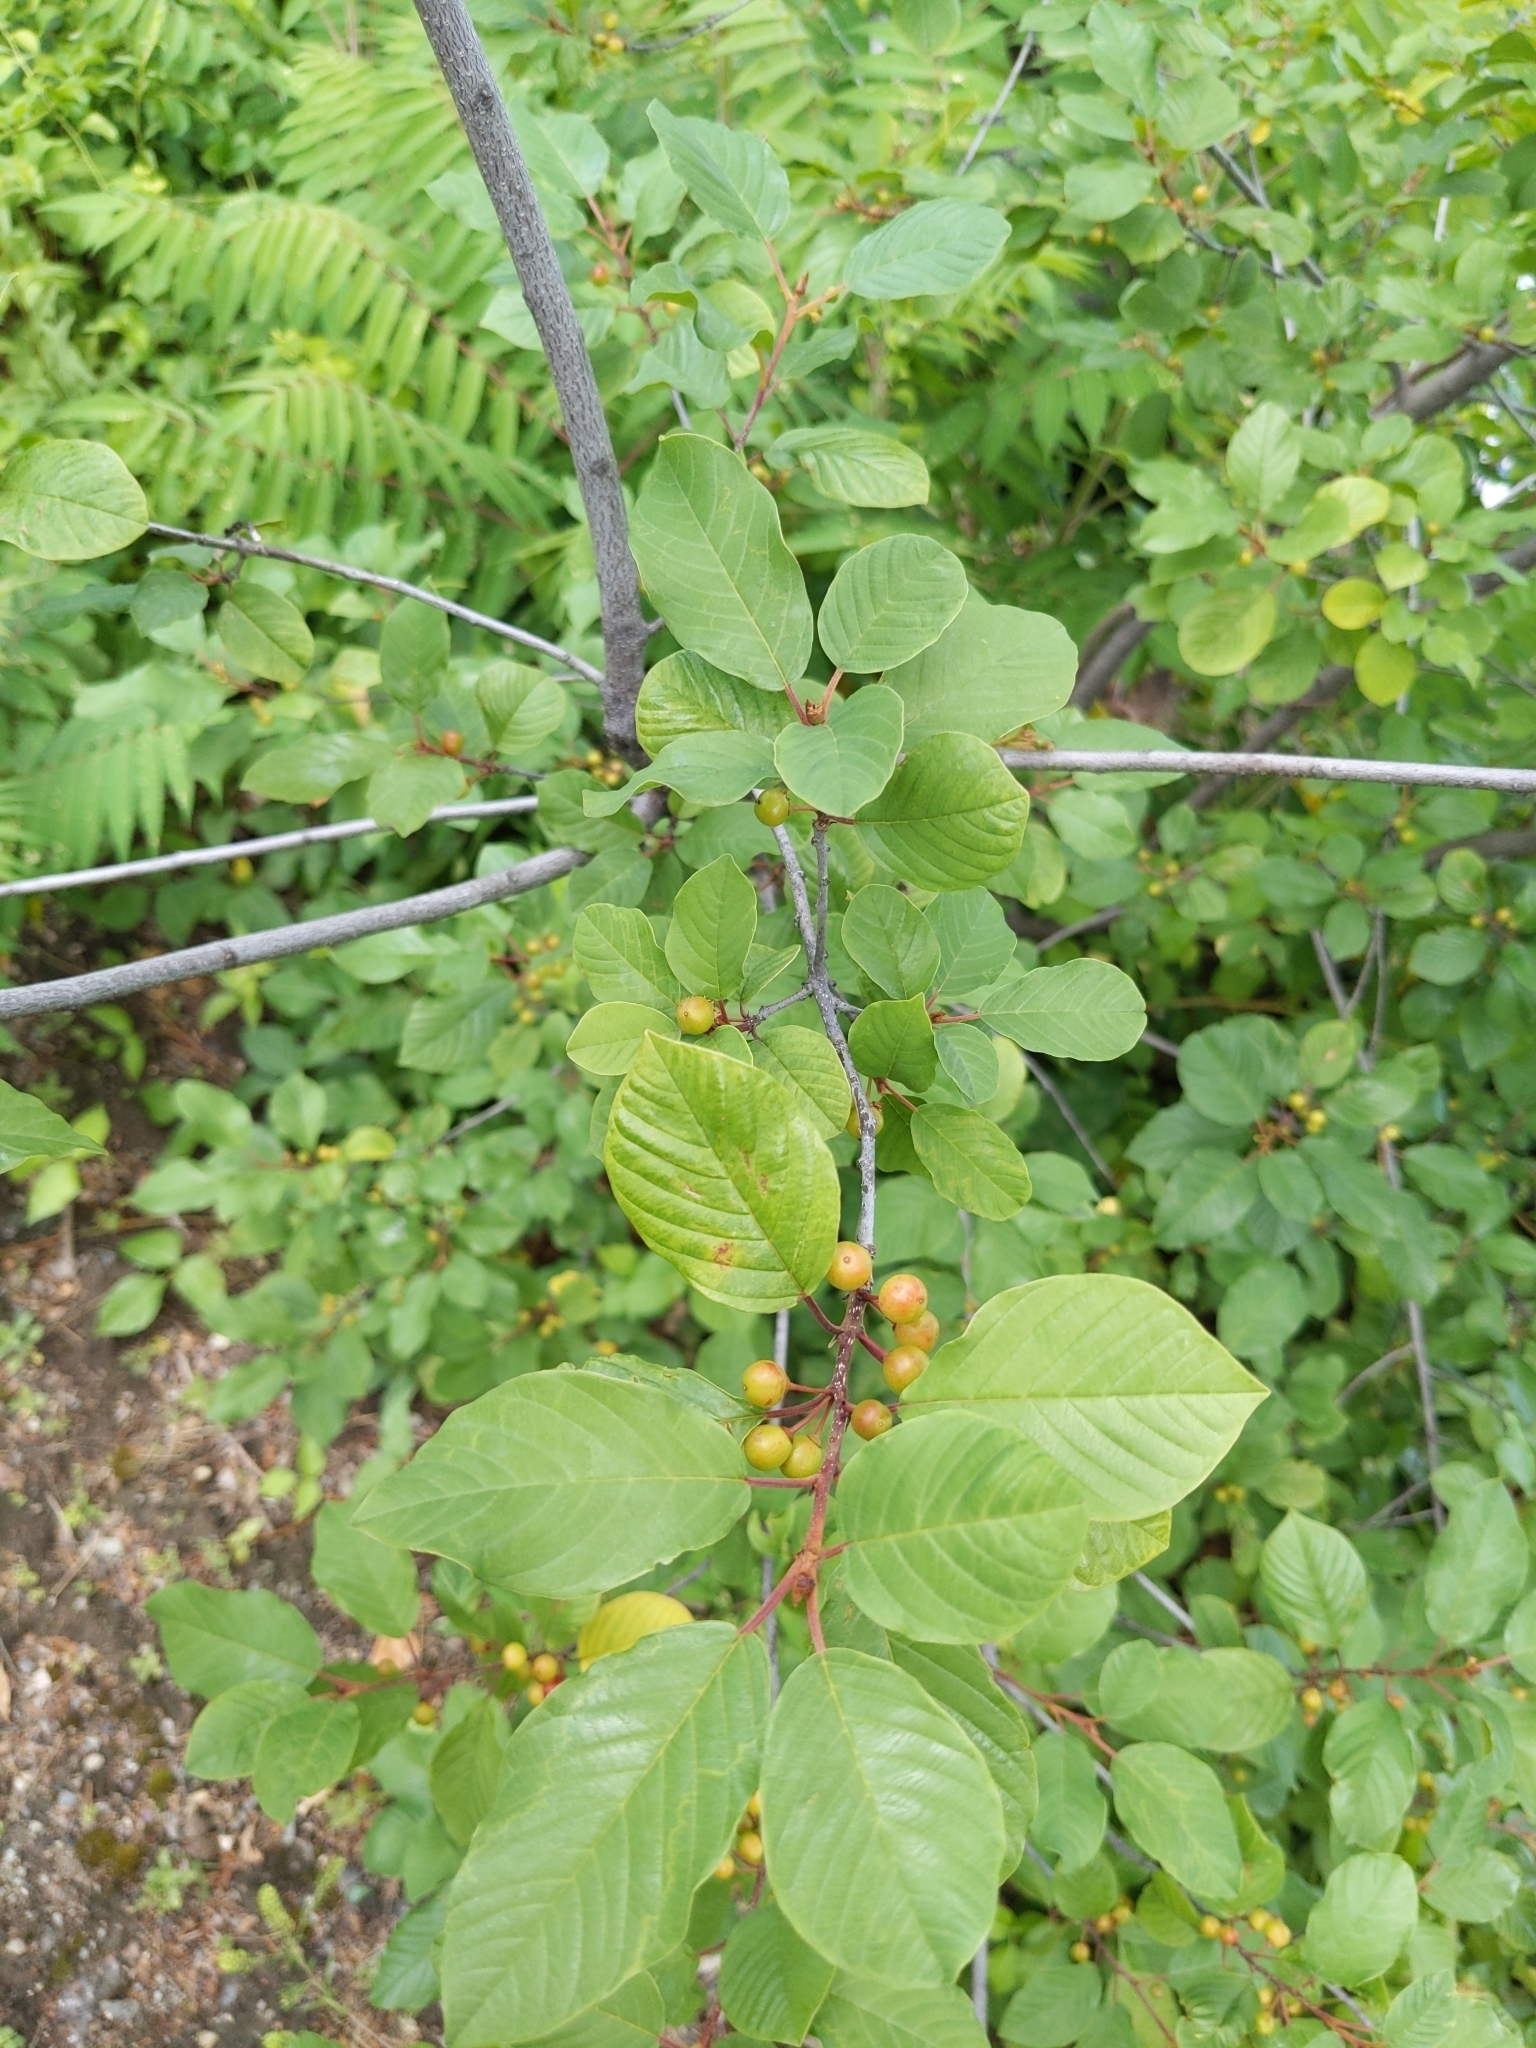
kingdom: Plantae
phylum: Tracheophyta
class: Magnoliopsida
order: Rosales
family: Rhamnaceae
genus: Frangula
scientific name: Frangula alnus
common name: Alder buckthorn
